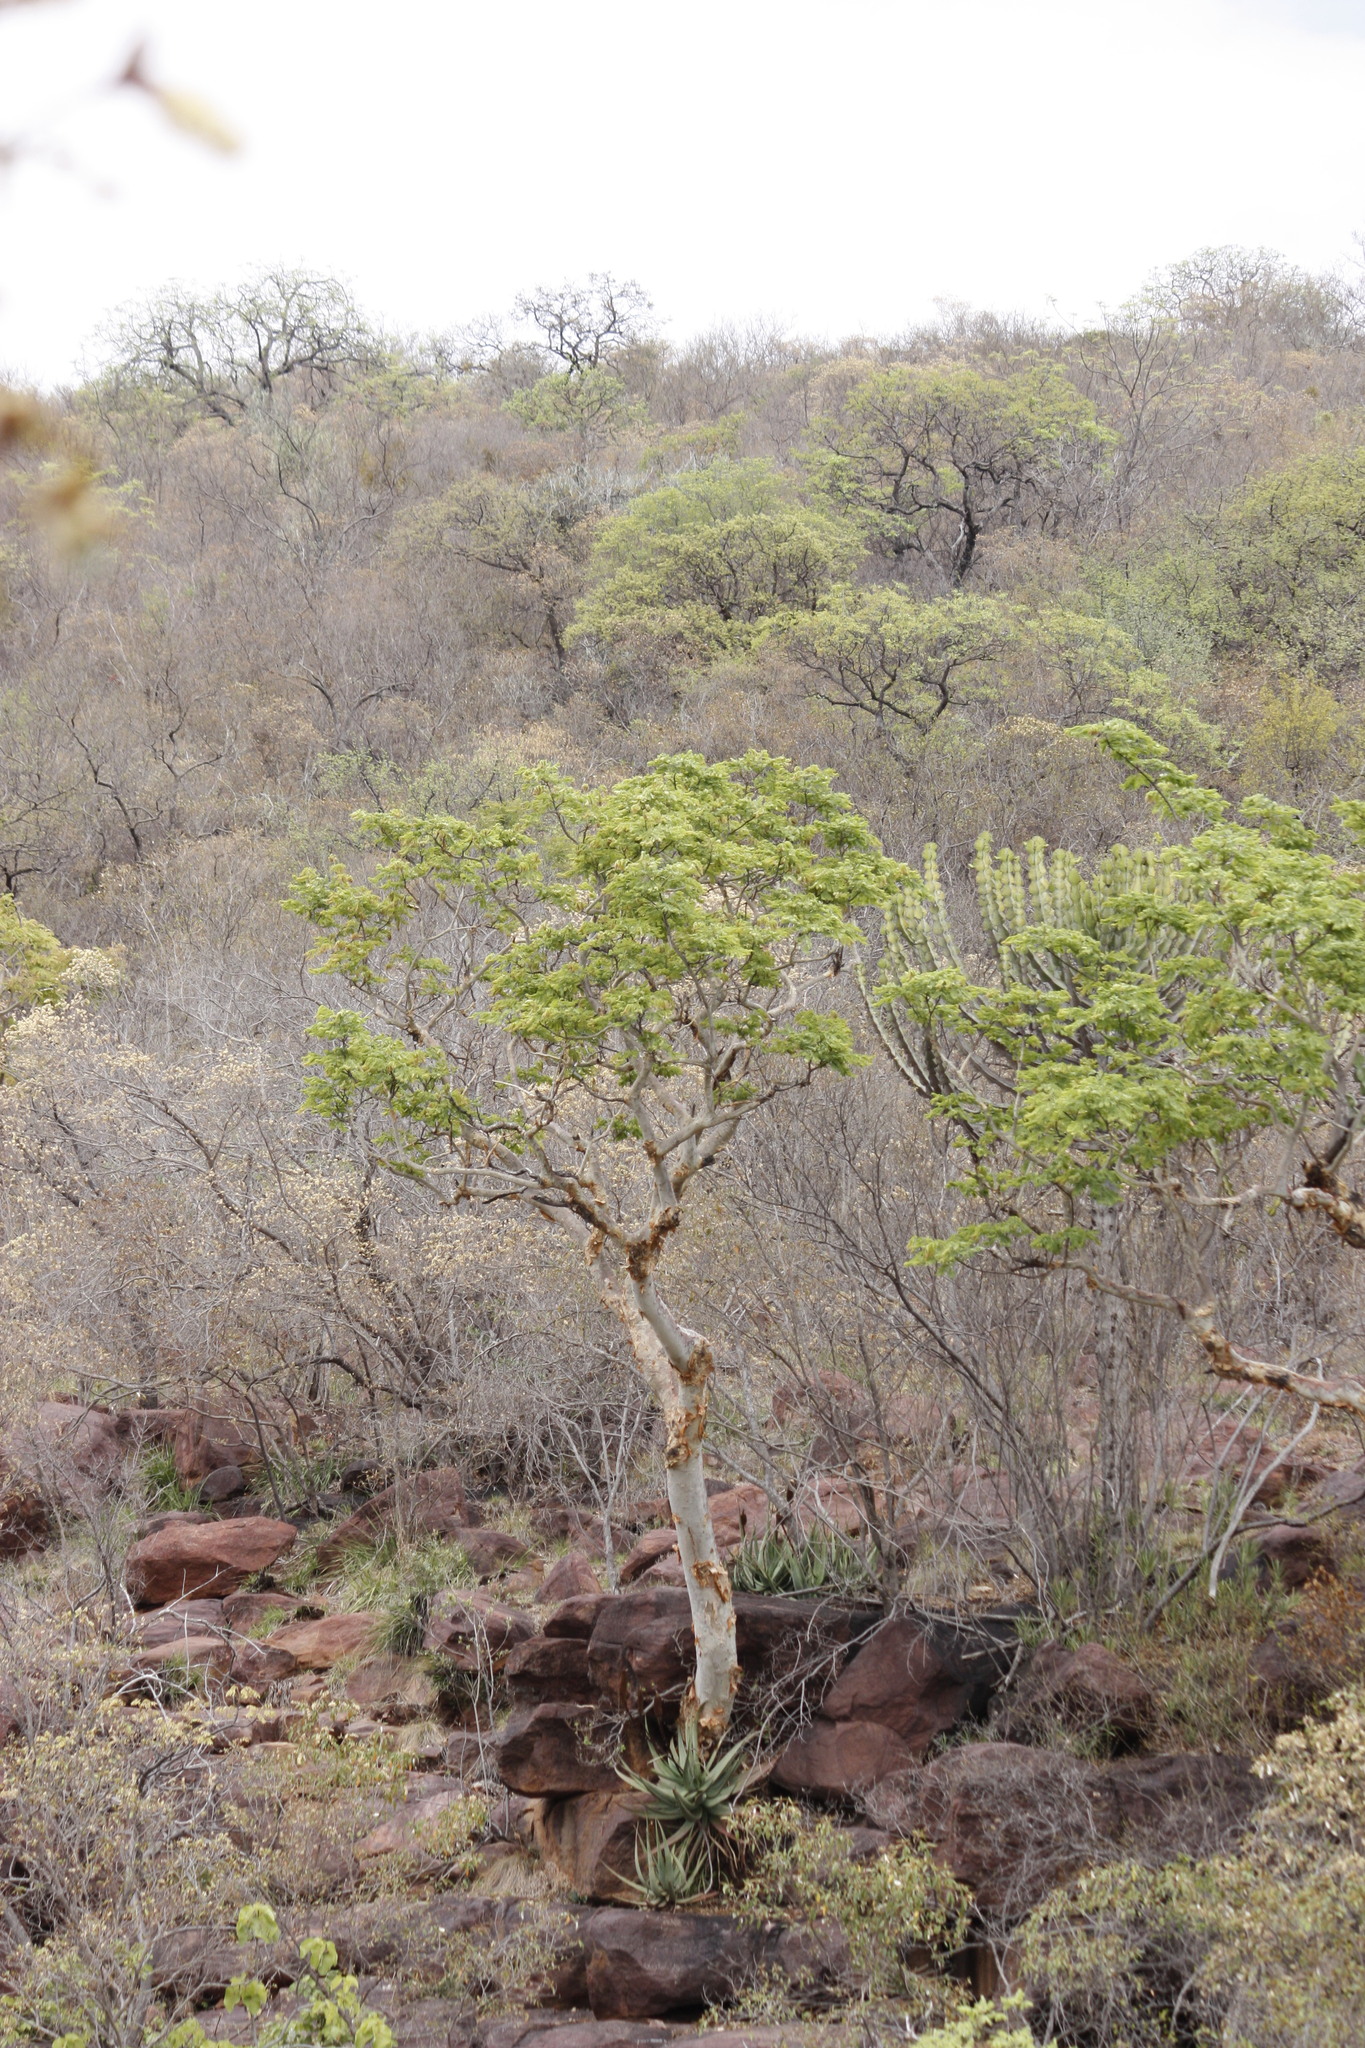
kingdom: Plantae
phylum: Tracheophyta
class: Magnoliopsida
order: Fabales
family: Fabaceae
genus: Albizia
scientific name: Albizia tanganyicensis
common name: Paperbark false thorn
